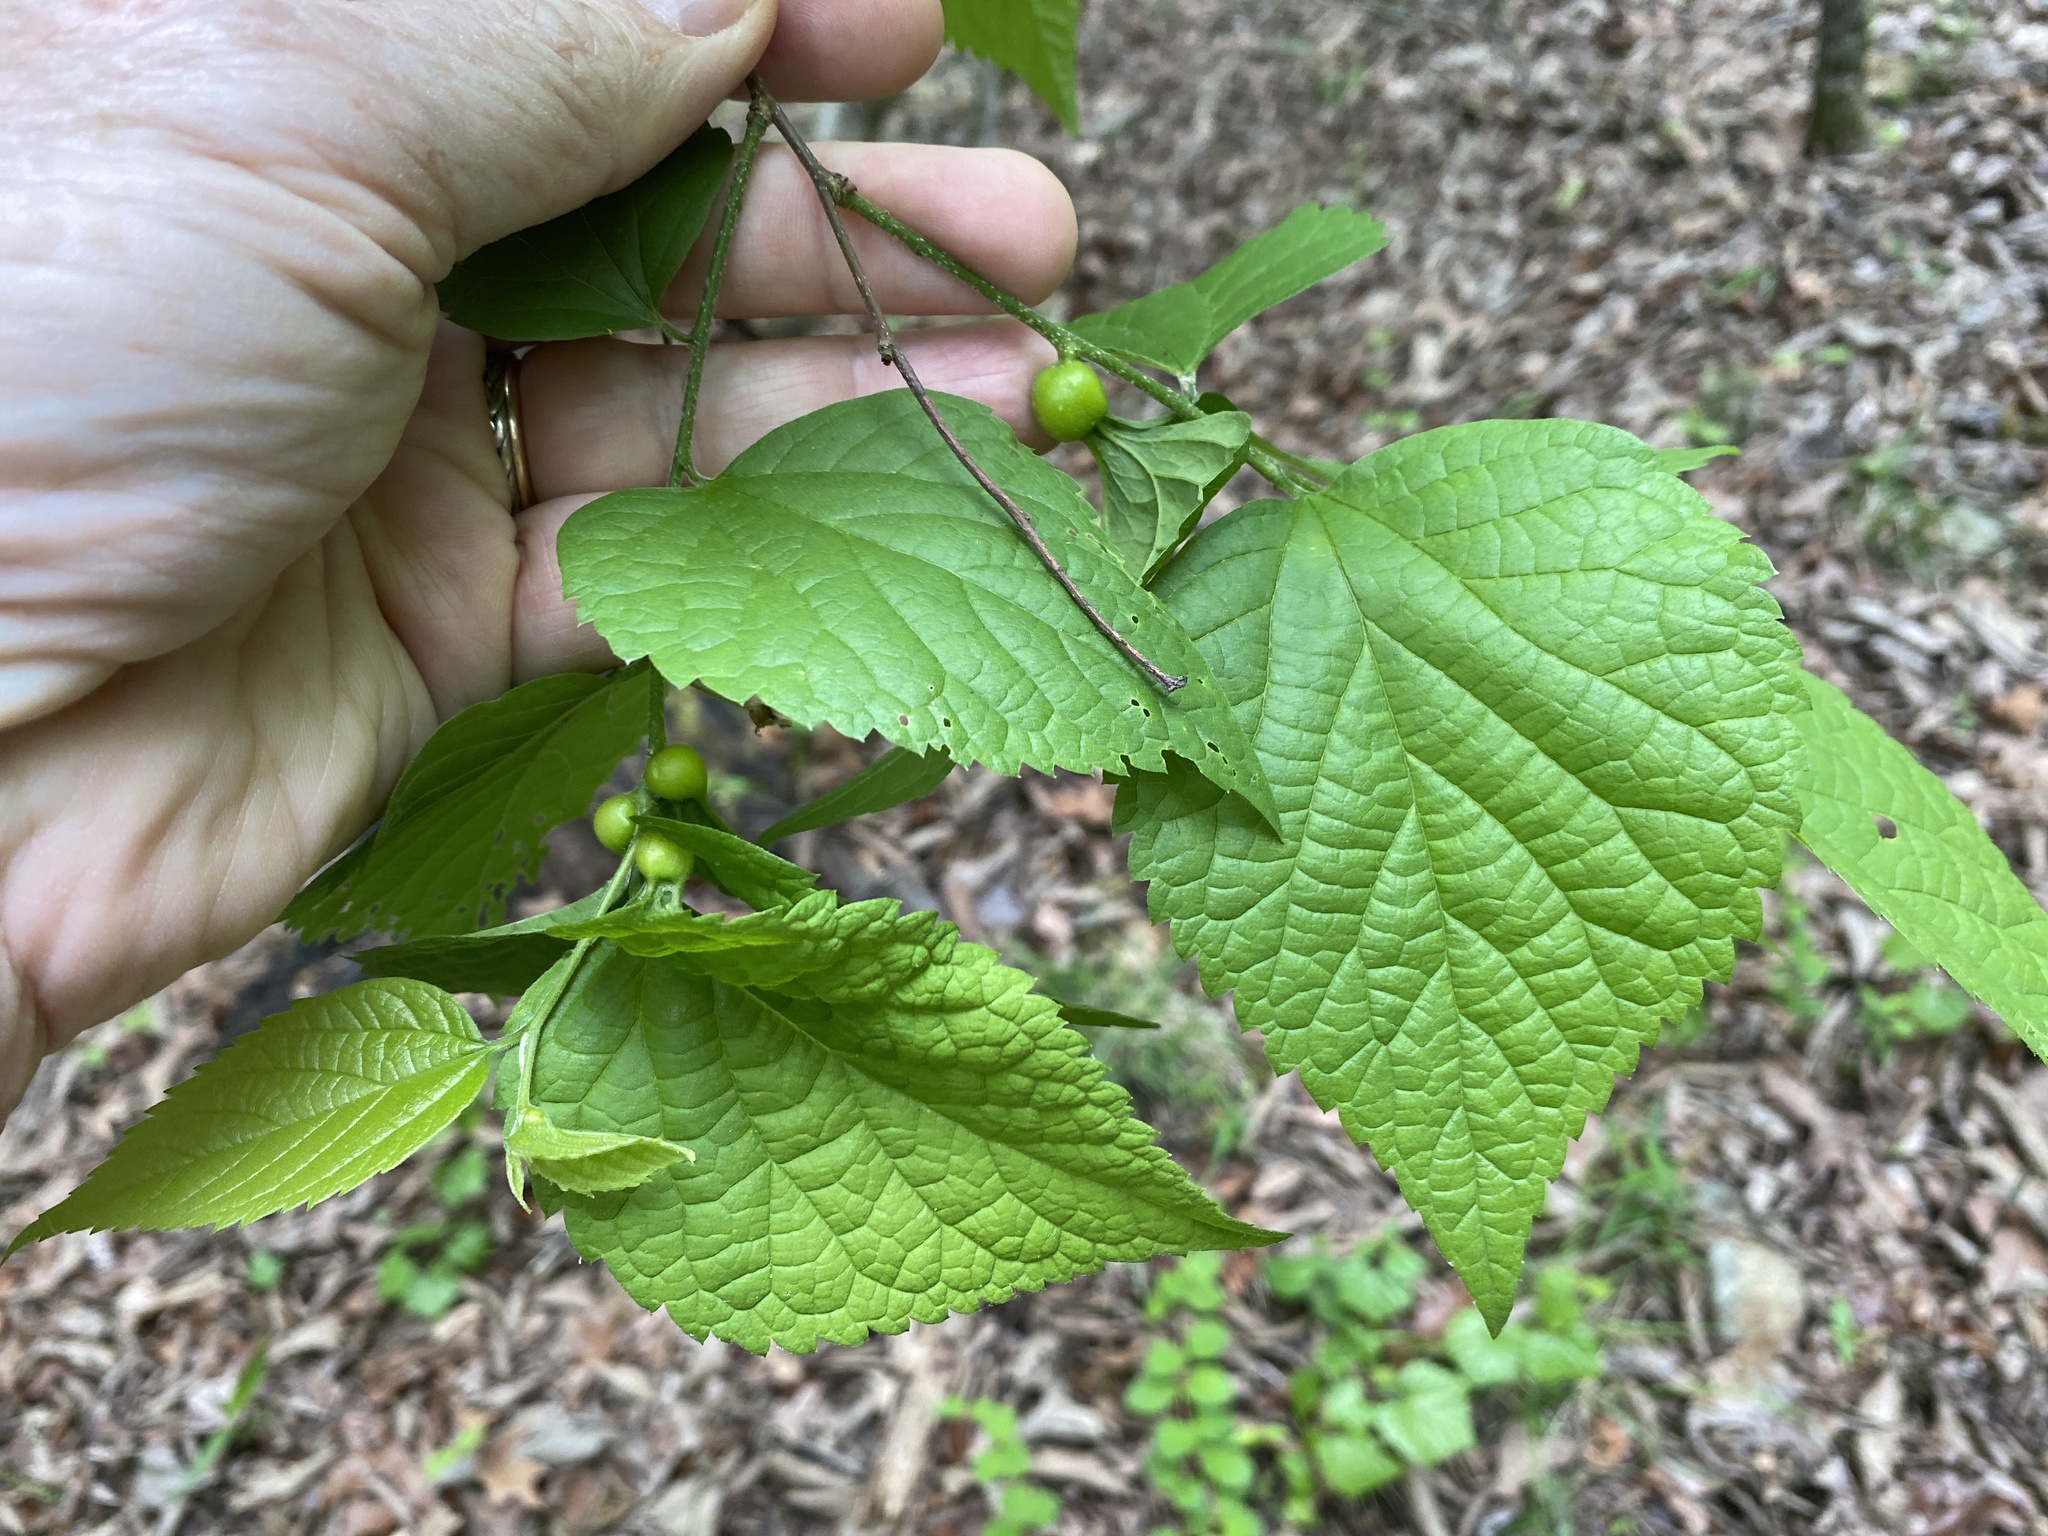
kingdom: Plantae
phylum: Tracheophyta
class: Magnoliopsida
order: Rosales
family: Cannabaceae
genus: Celtis
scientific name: Celtis tenuifolia
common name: Georgia hackberry
